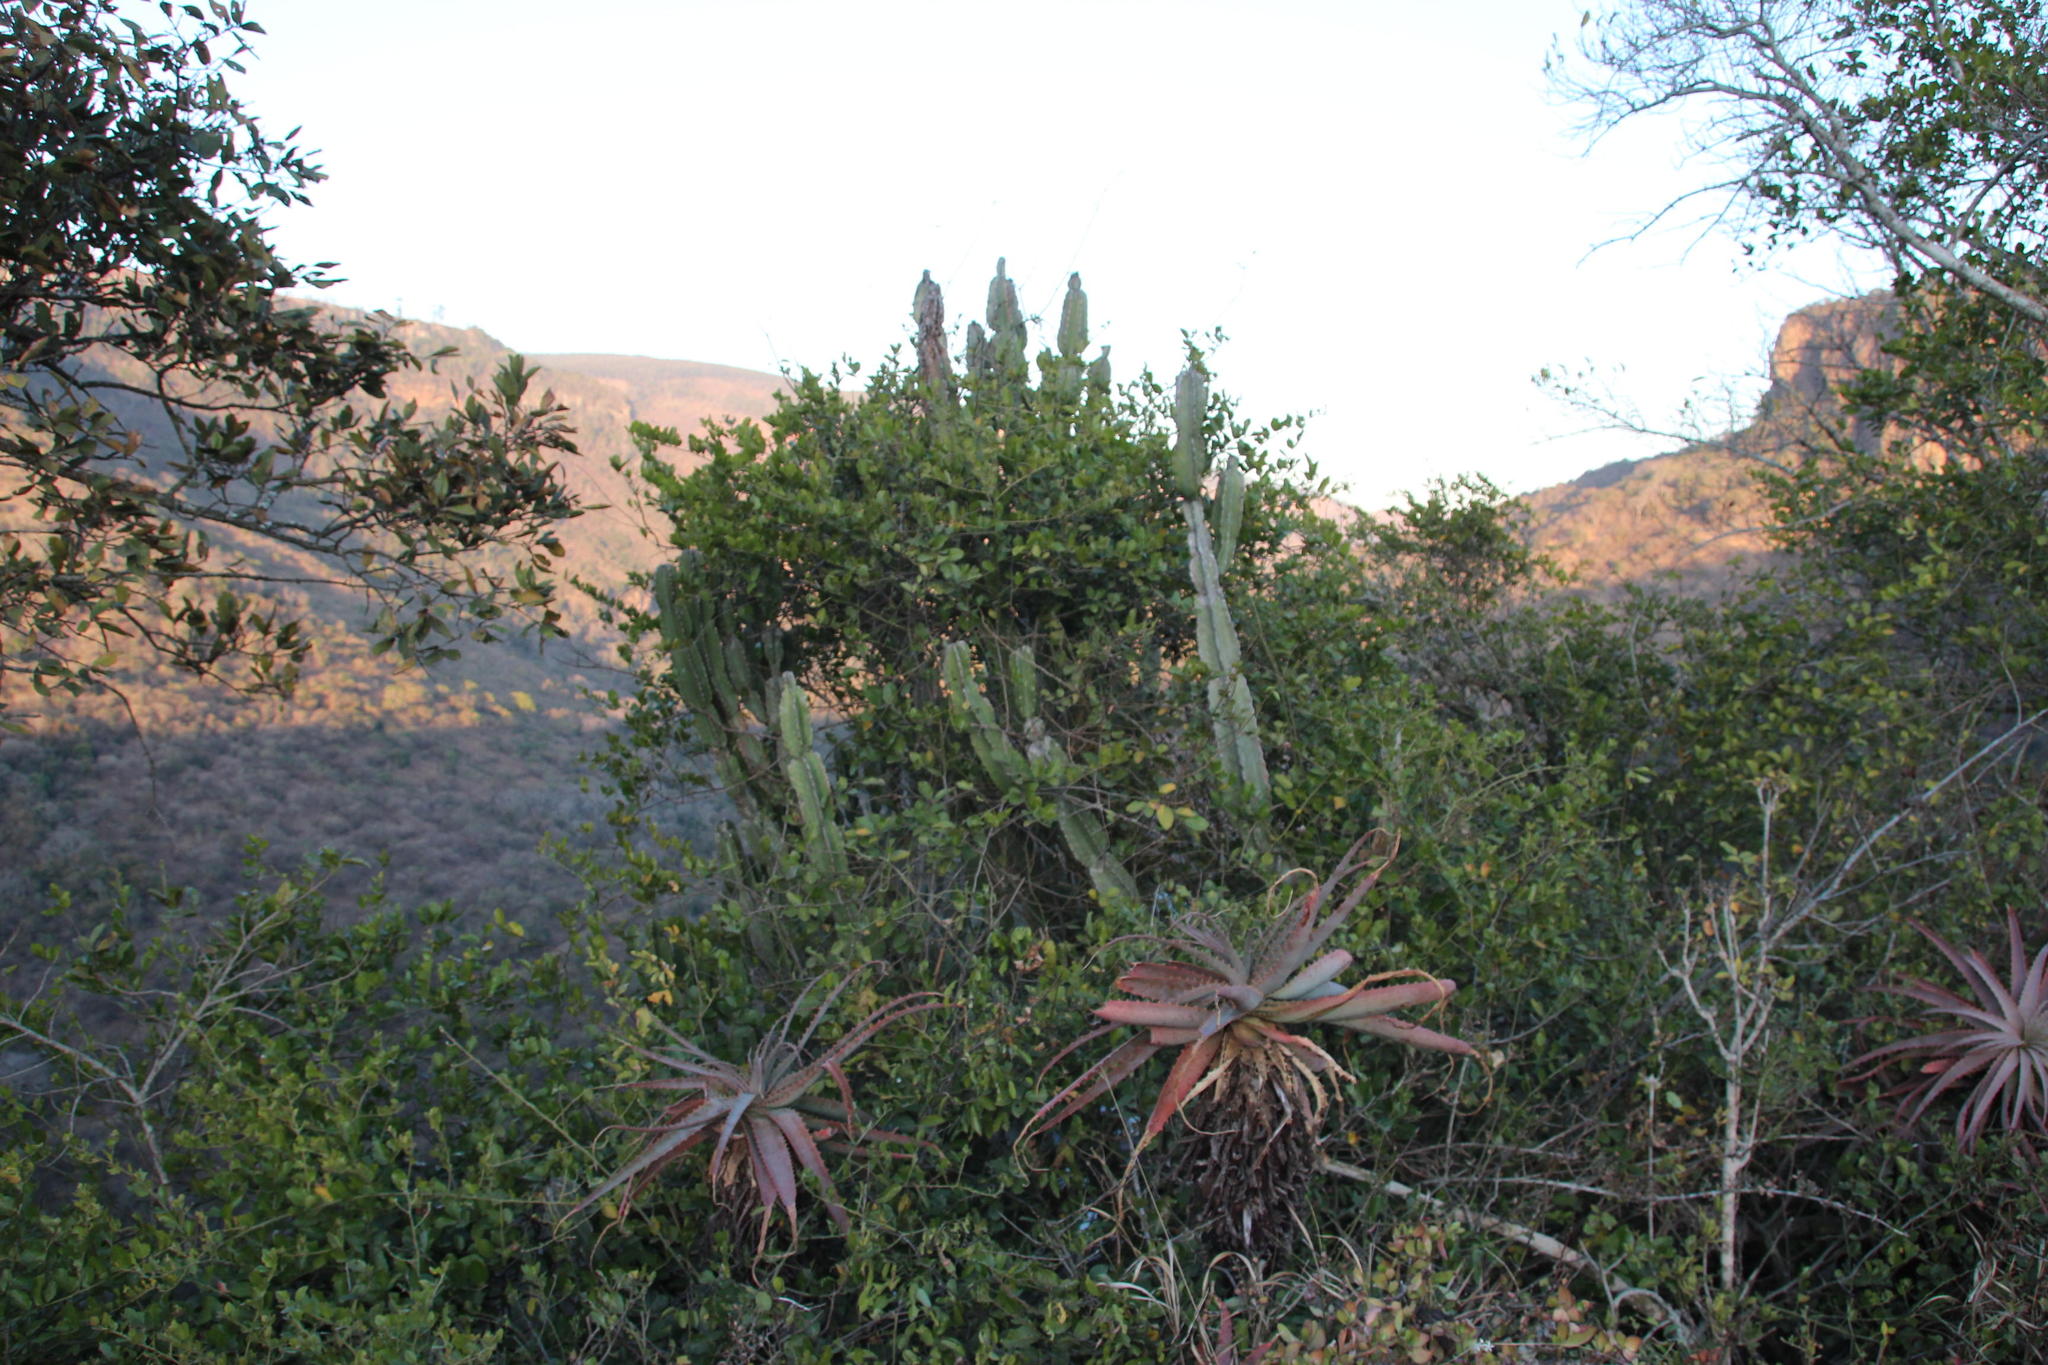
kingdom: Plantae
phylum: Tracheophyta
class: Magnoliopsida
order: Malpighiales
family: Euphorbiaceae
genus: Euphorbia
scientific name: Euphorbia ingens
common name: Cactus spurge
